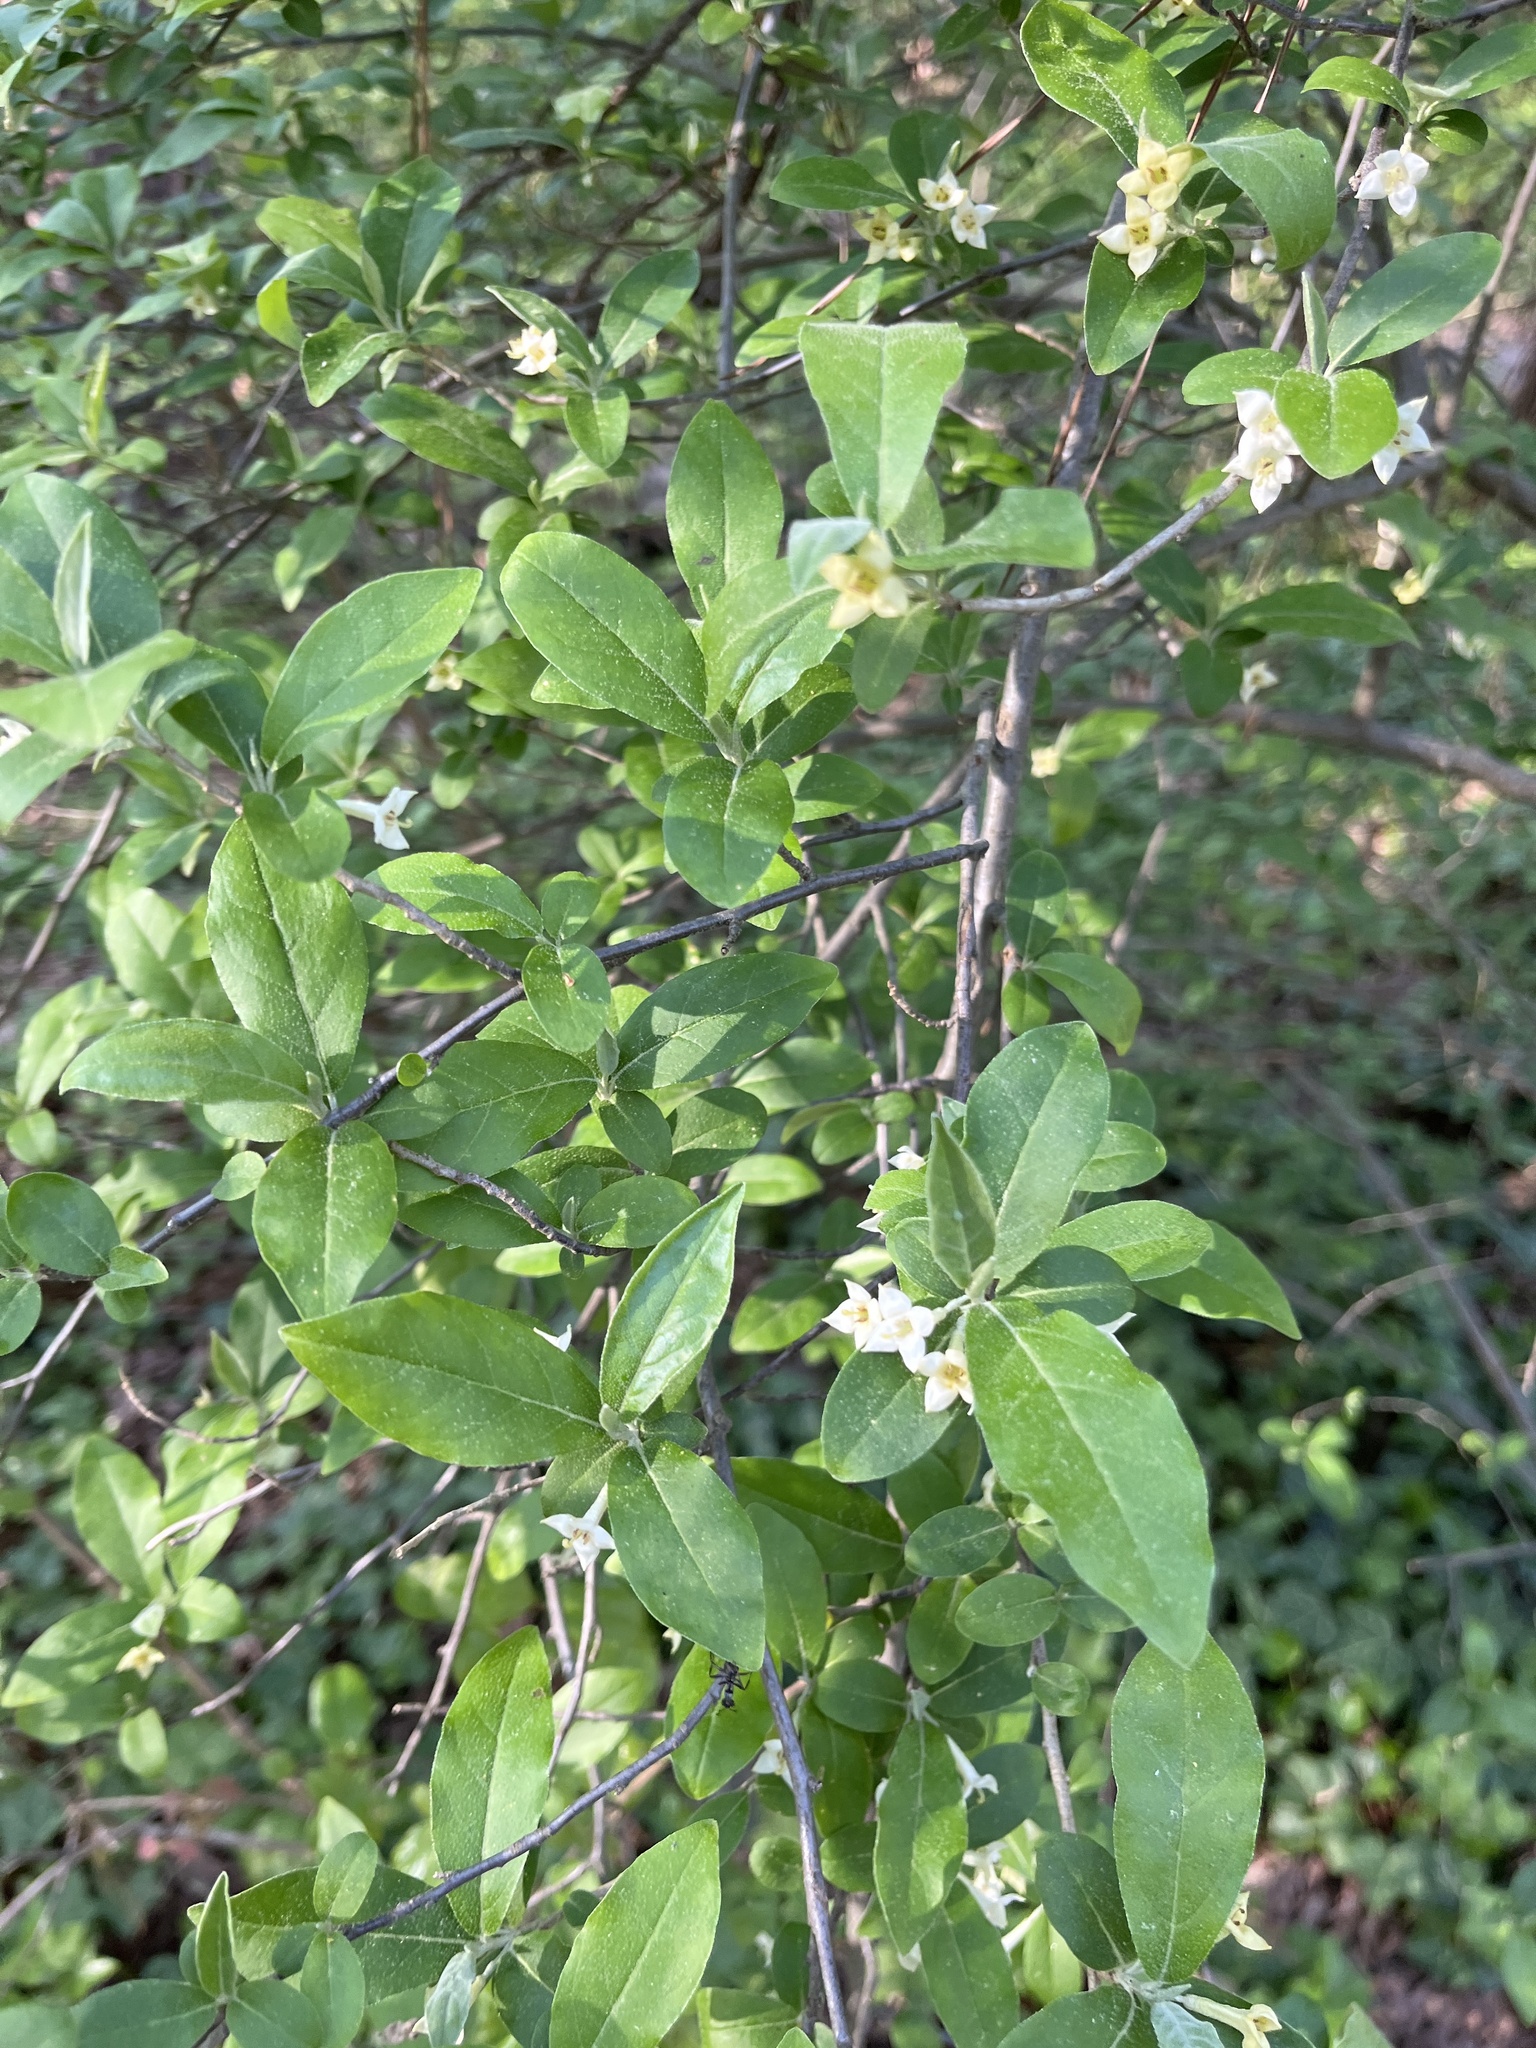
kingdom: Plantae
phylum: Tracheophyta
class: Magnoliopsida
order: Rosales
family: Elaeagnaceae
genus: Elaeagnus
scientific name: Elaeagnus umbellata
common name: Autumn olive
